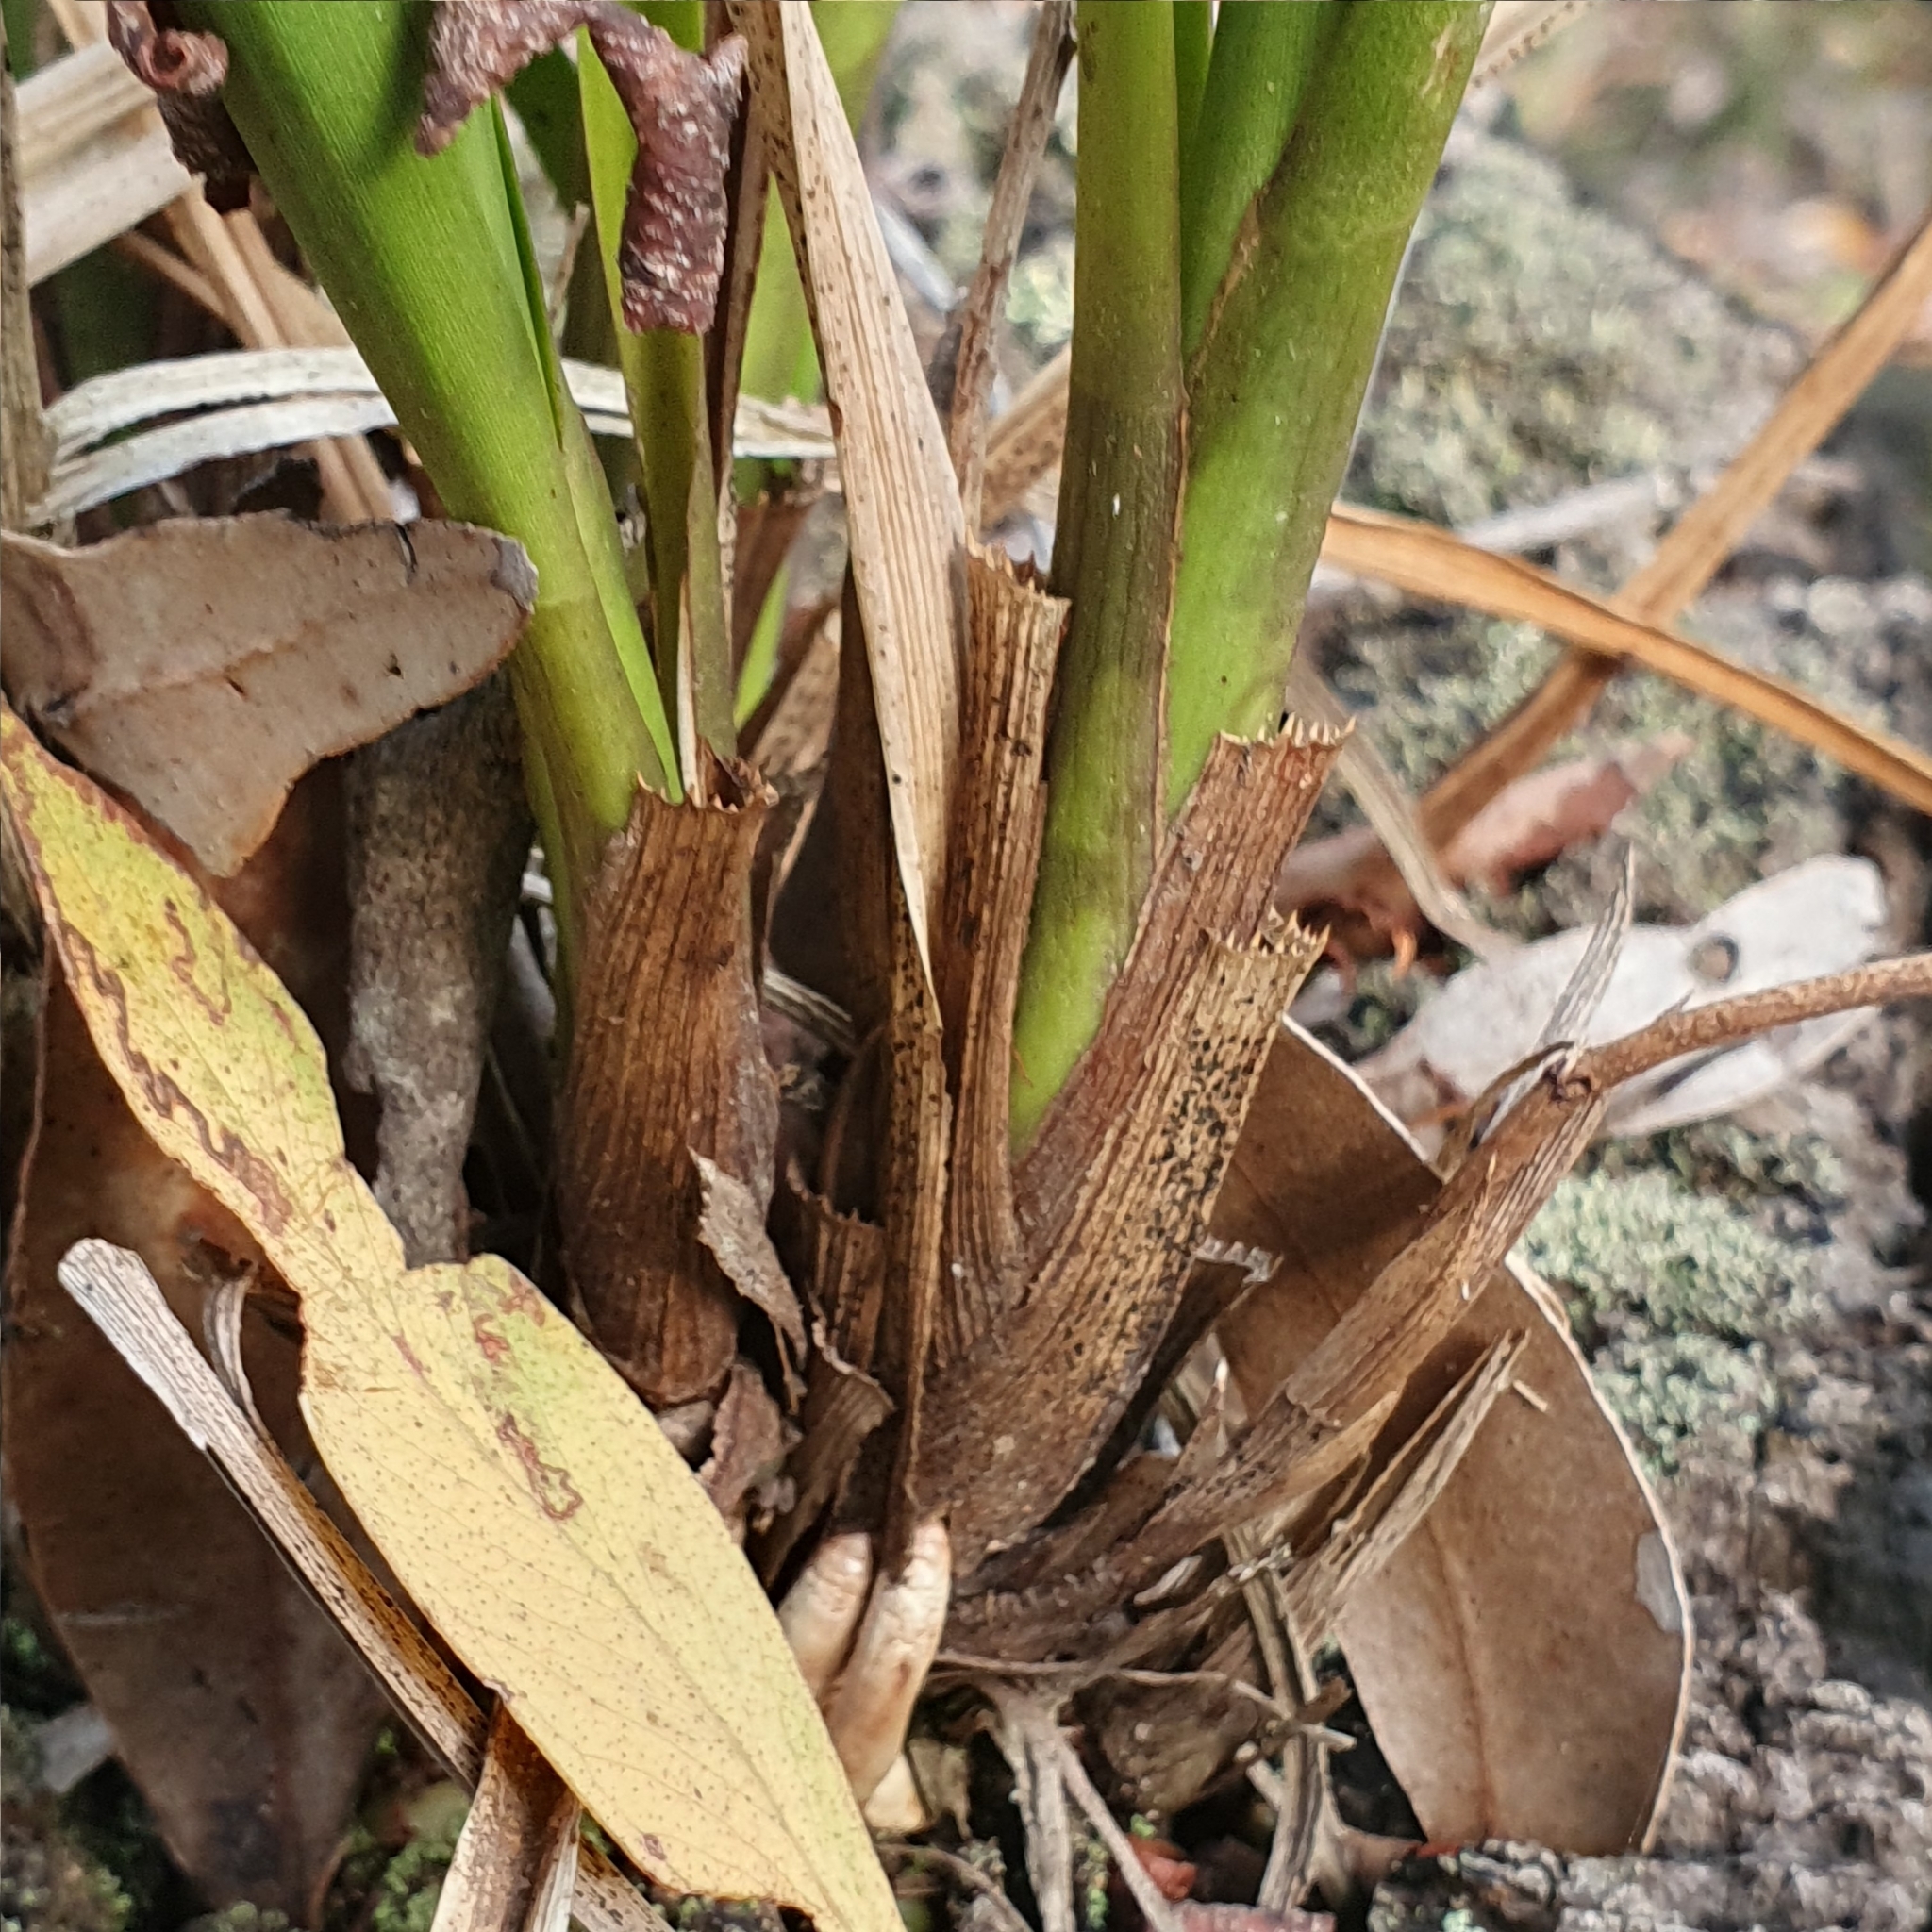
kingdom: Plantae
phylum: Tracheophyta
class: Liliopsida
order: Asparagales
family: Orchidaceae
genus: Cymbidium
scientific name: Cymbidium suave
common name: Snake orchid
